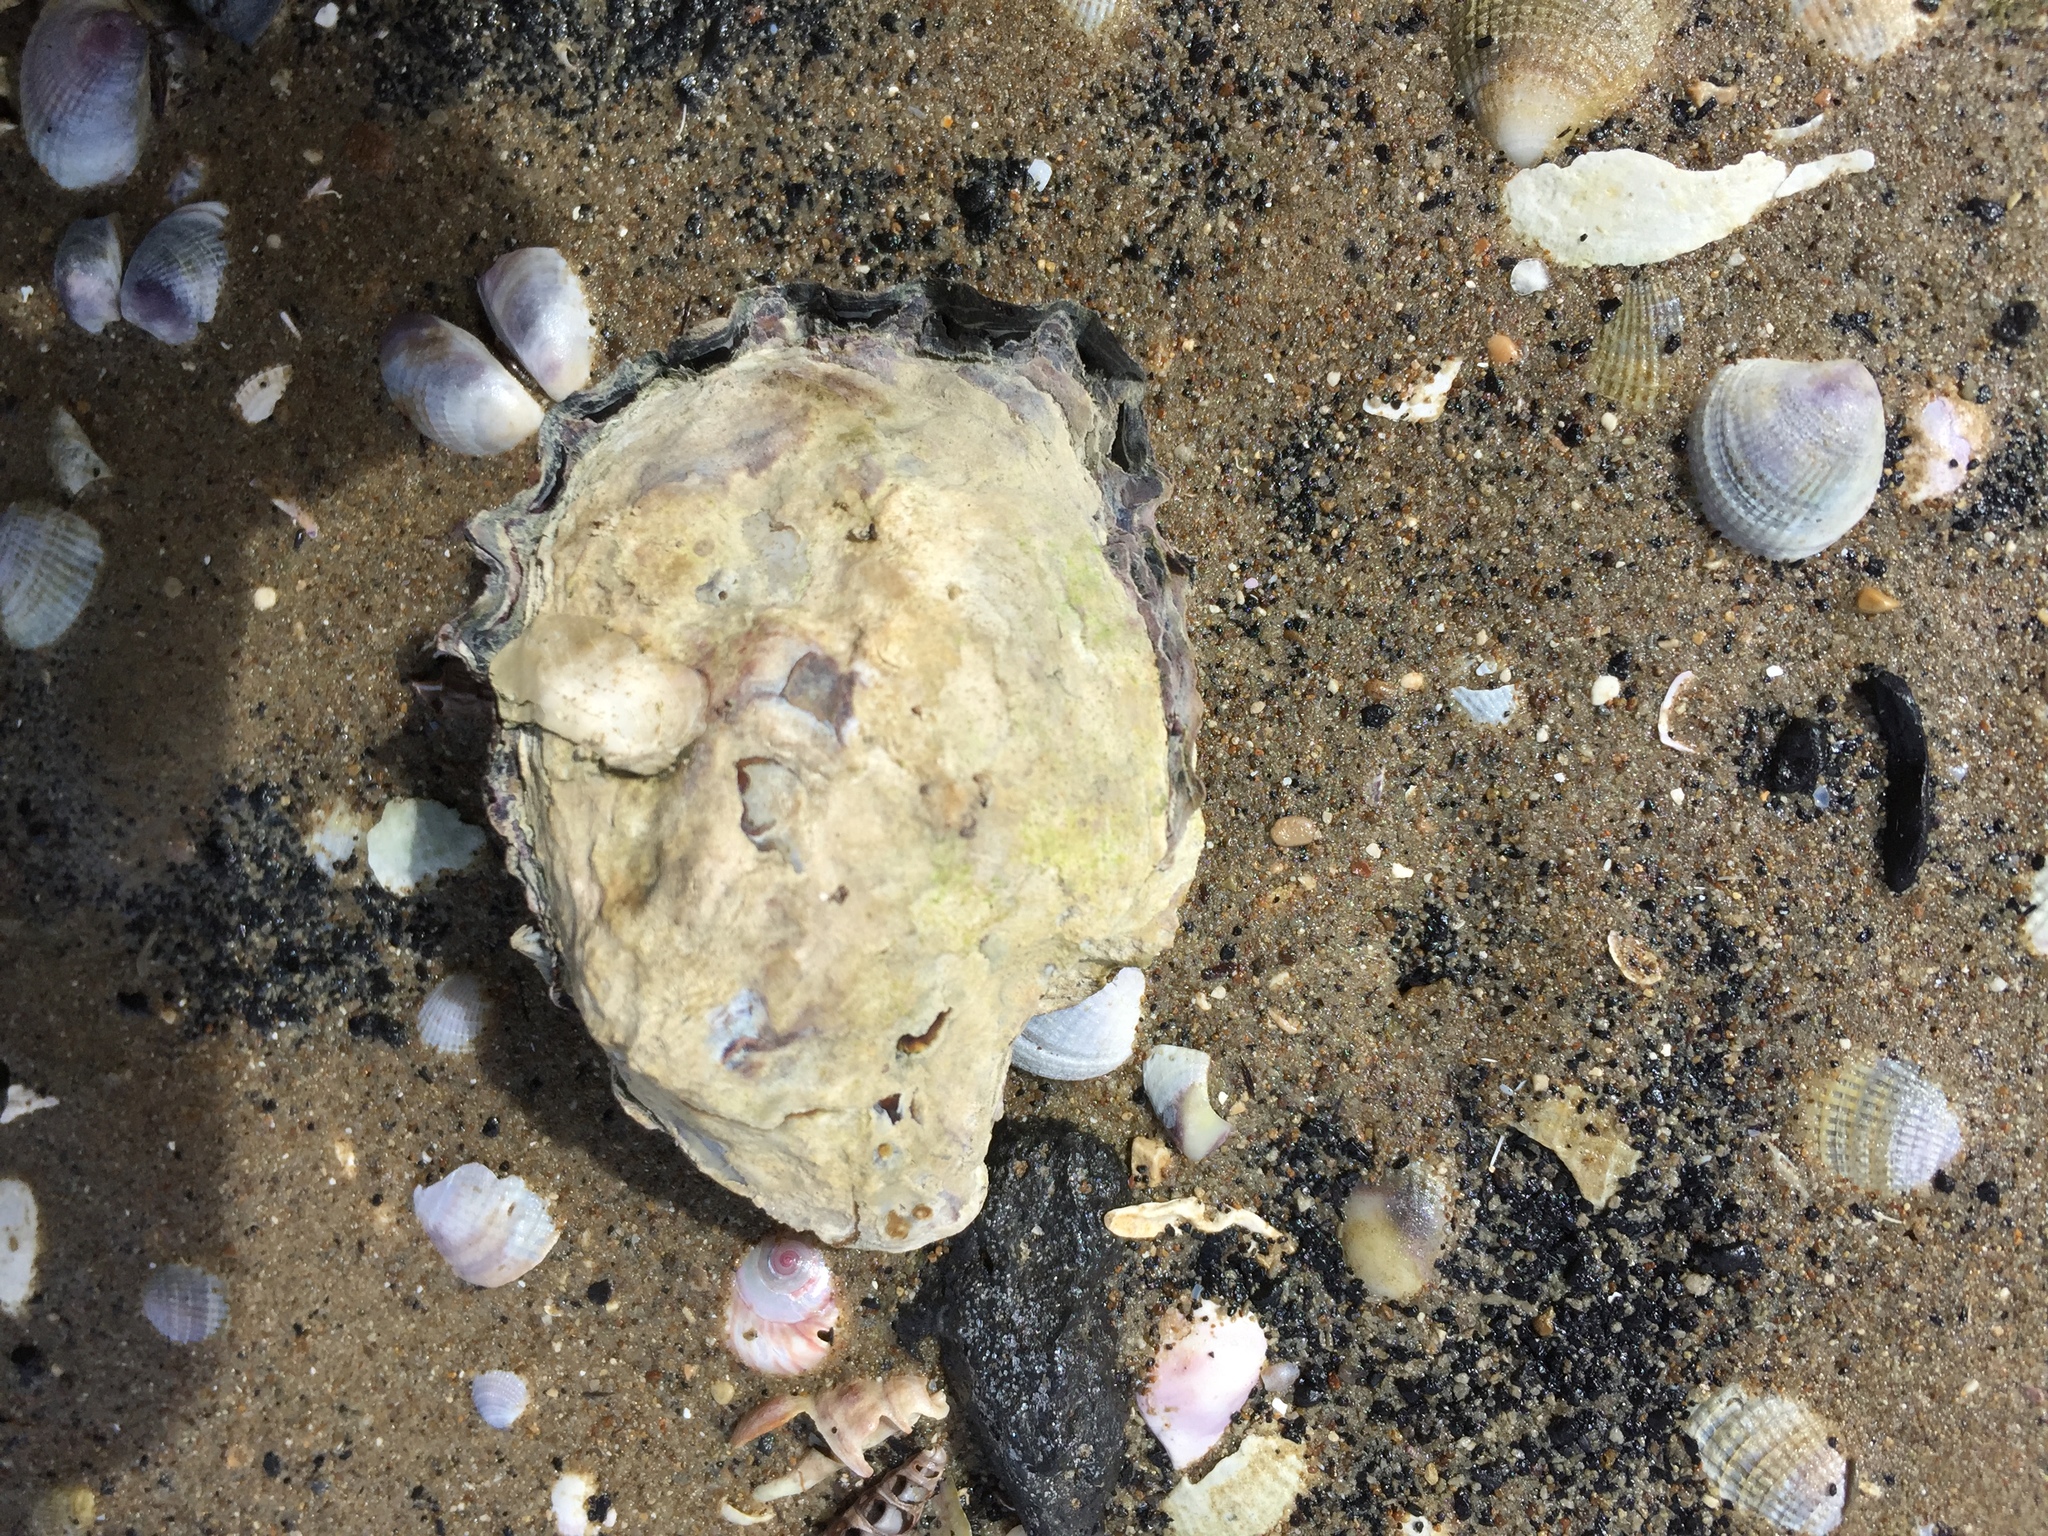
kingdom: Animalia
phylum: Mollusca
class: Bivalvia
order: Ostreida
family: Ostreidae
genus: Saccostrea
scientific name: Saccostrea glomerata
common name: Sydney cupped oyster
